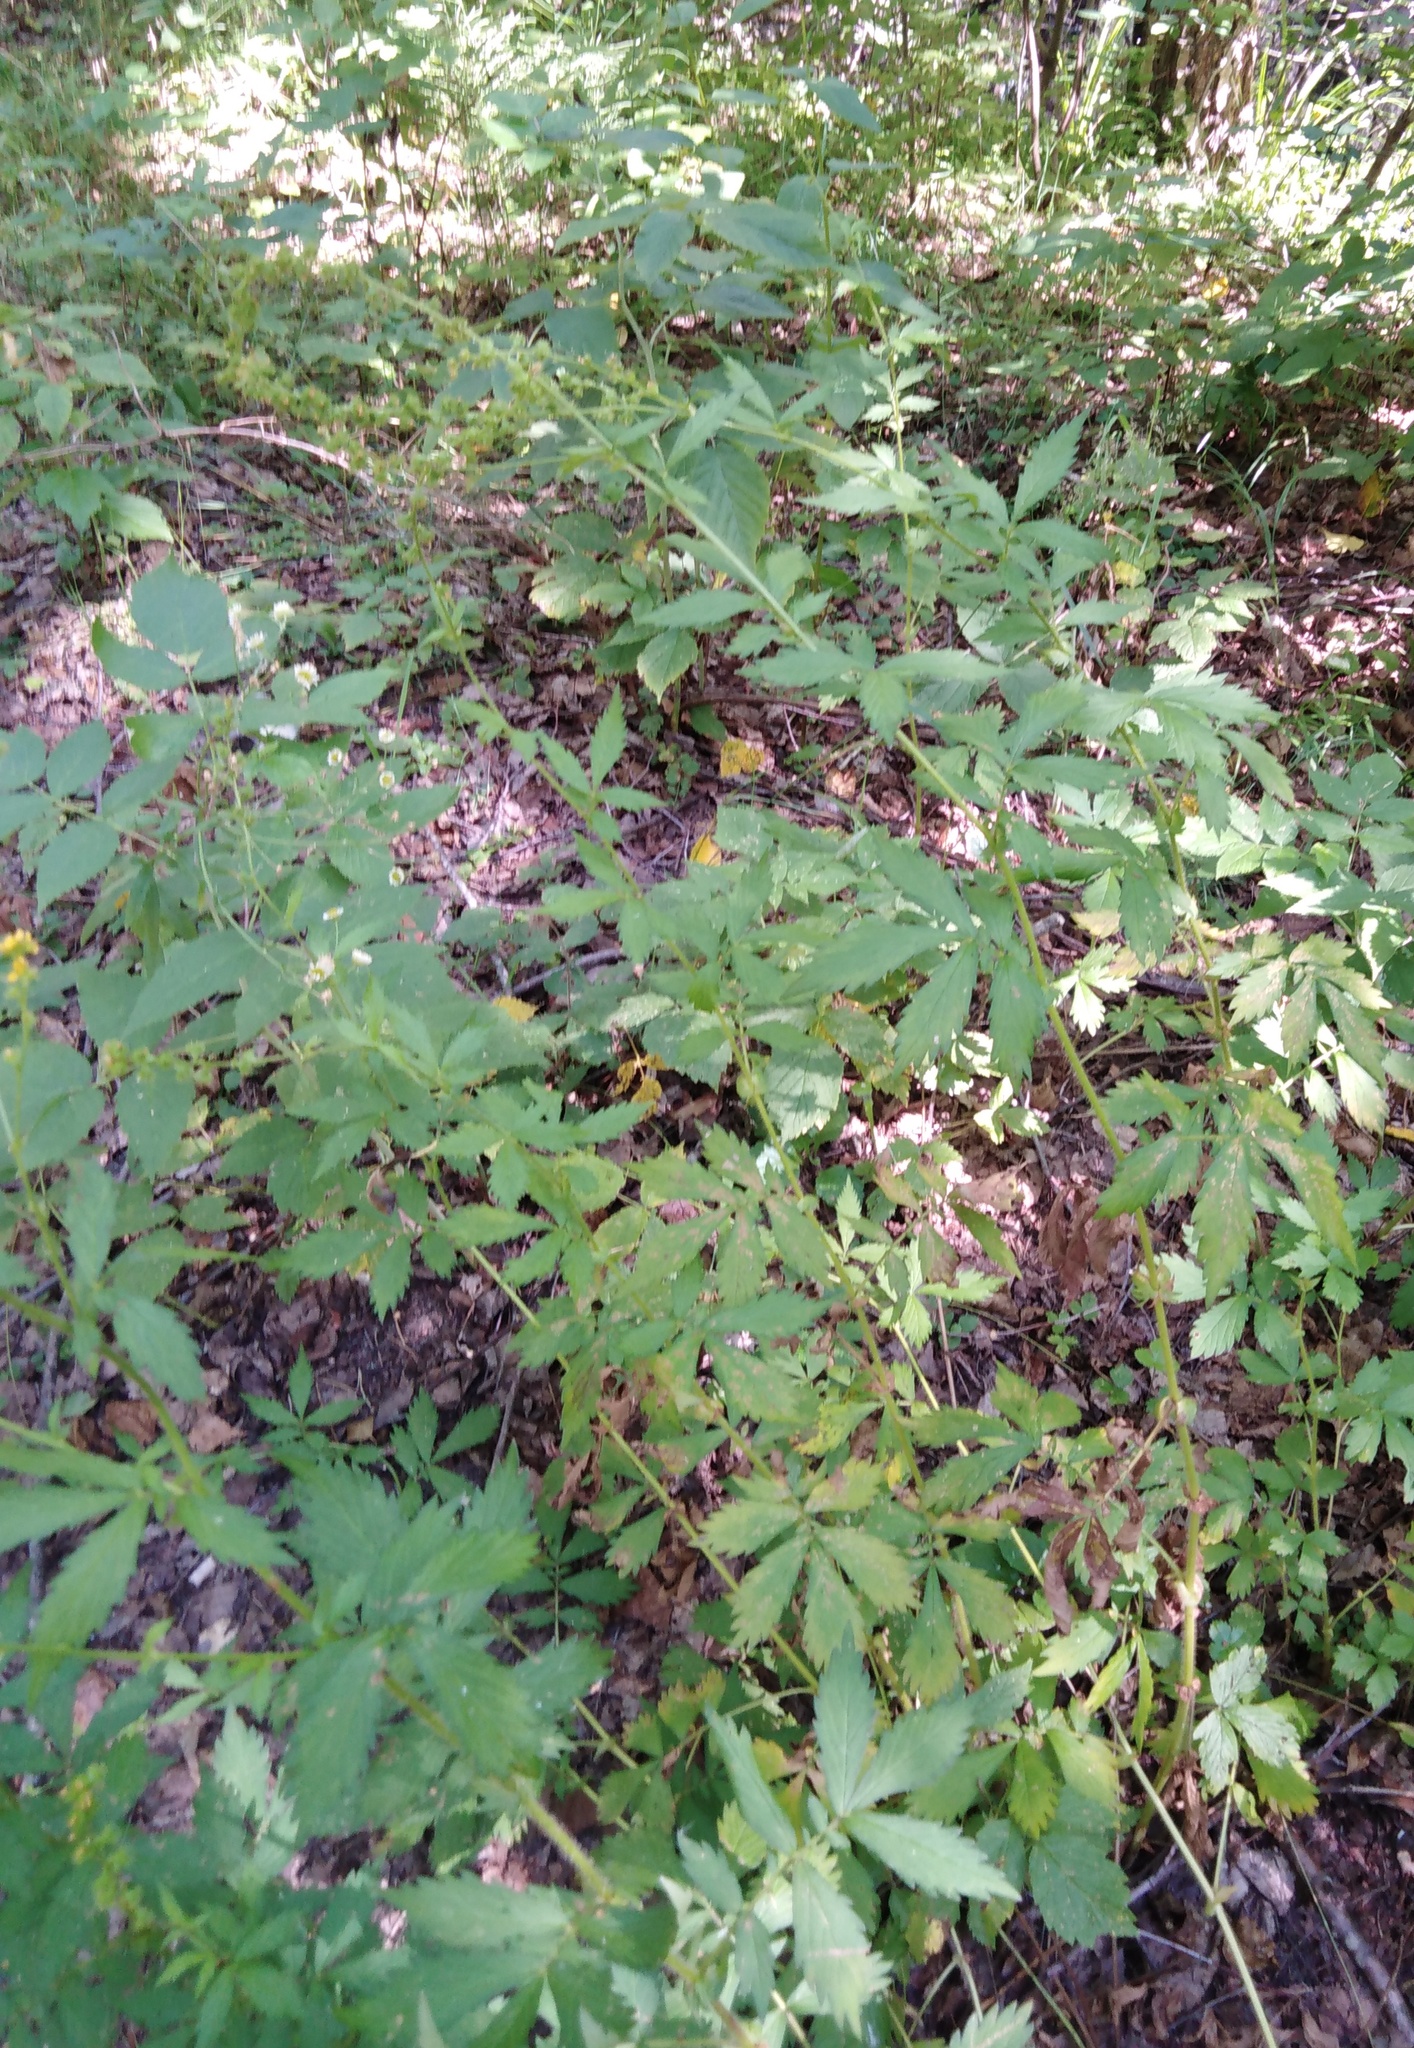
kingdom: Plantae
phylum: Tracheophyta
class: Magnoliopsida
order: Rosales
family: Rosaceae
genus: Agrimonia
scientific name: Agrimonia pilosa
